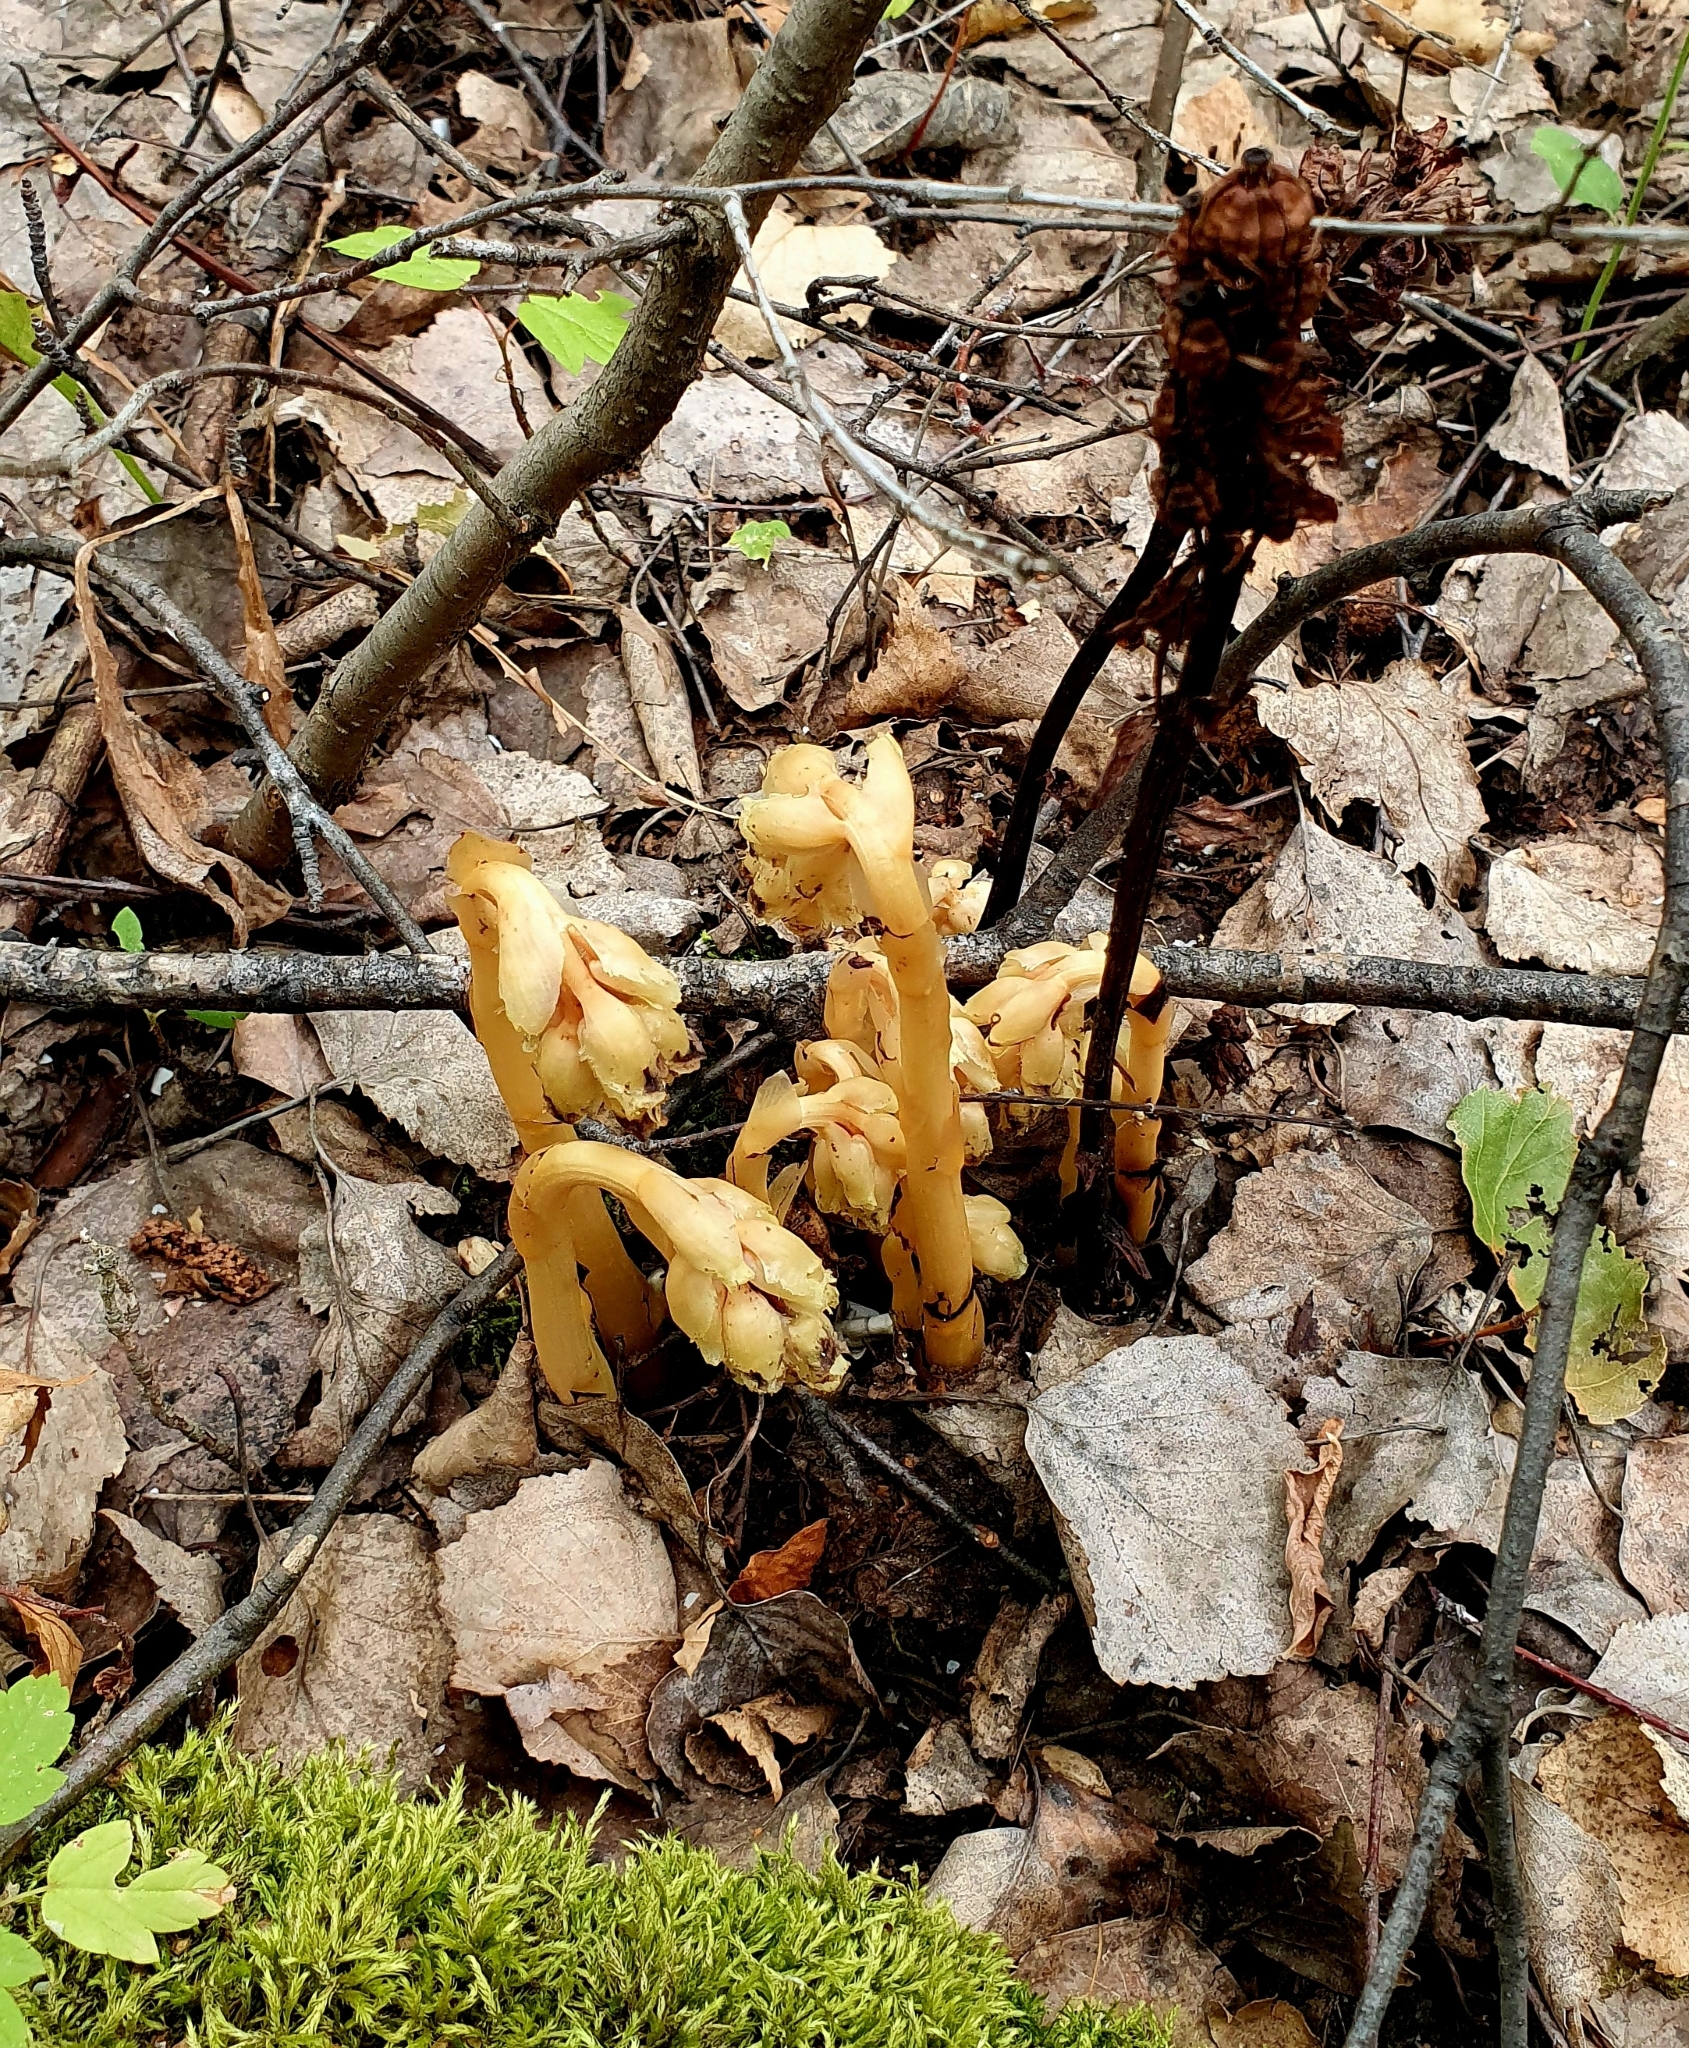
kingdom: Plantae
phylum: Tracheophyta
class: Magnoliopsida
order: Ericales
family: Ericaceae
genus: Hypopitys
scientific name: Hypopitys monotropa
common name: Yellow bird's-nest
